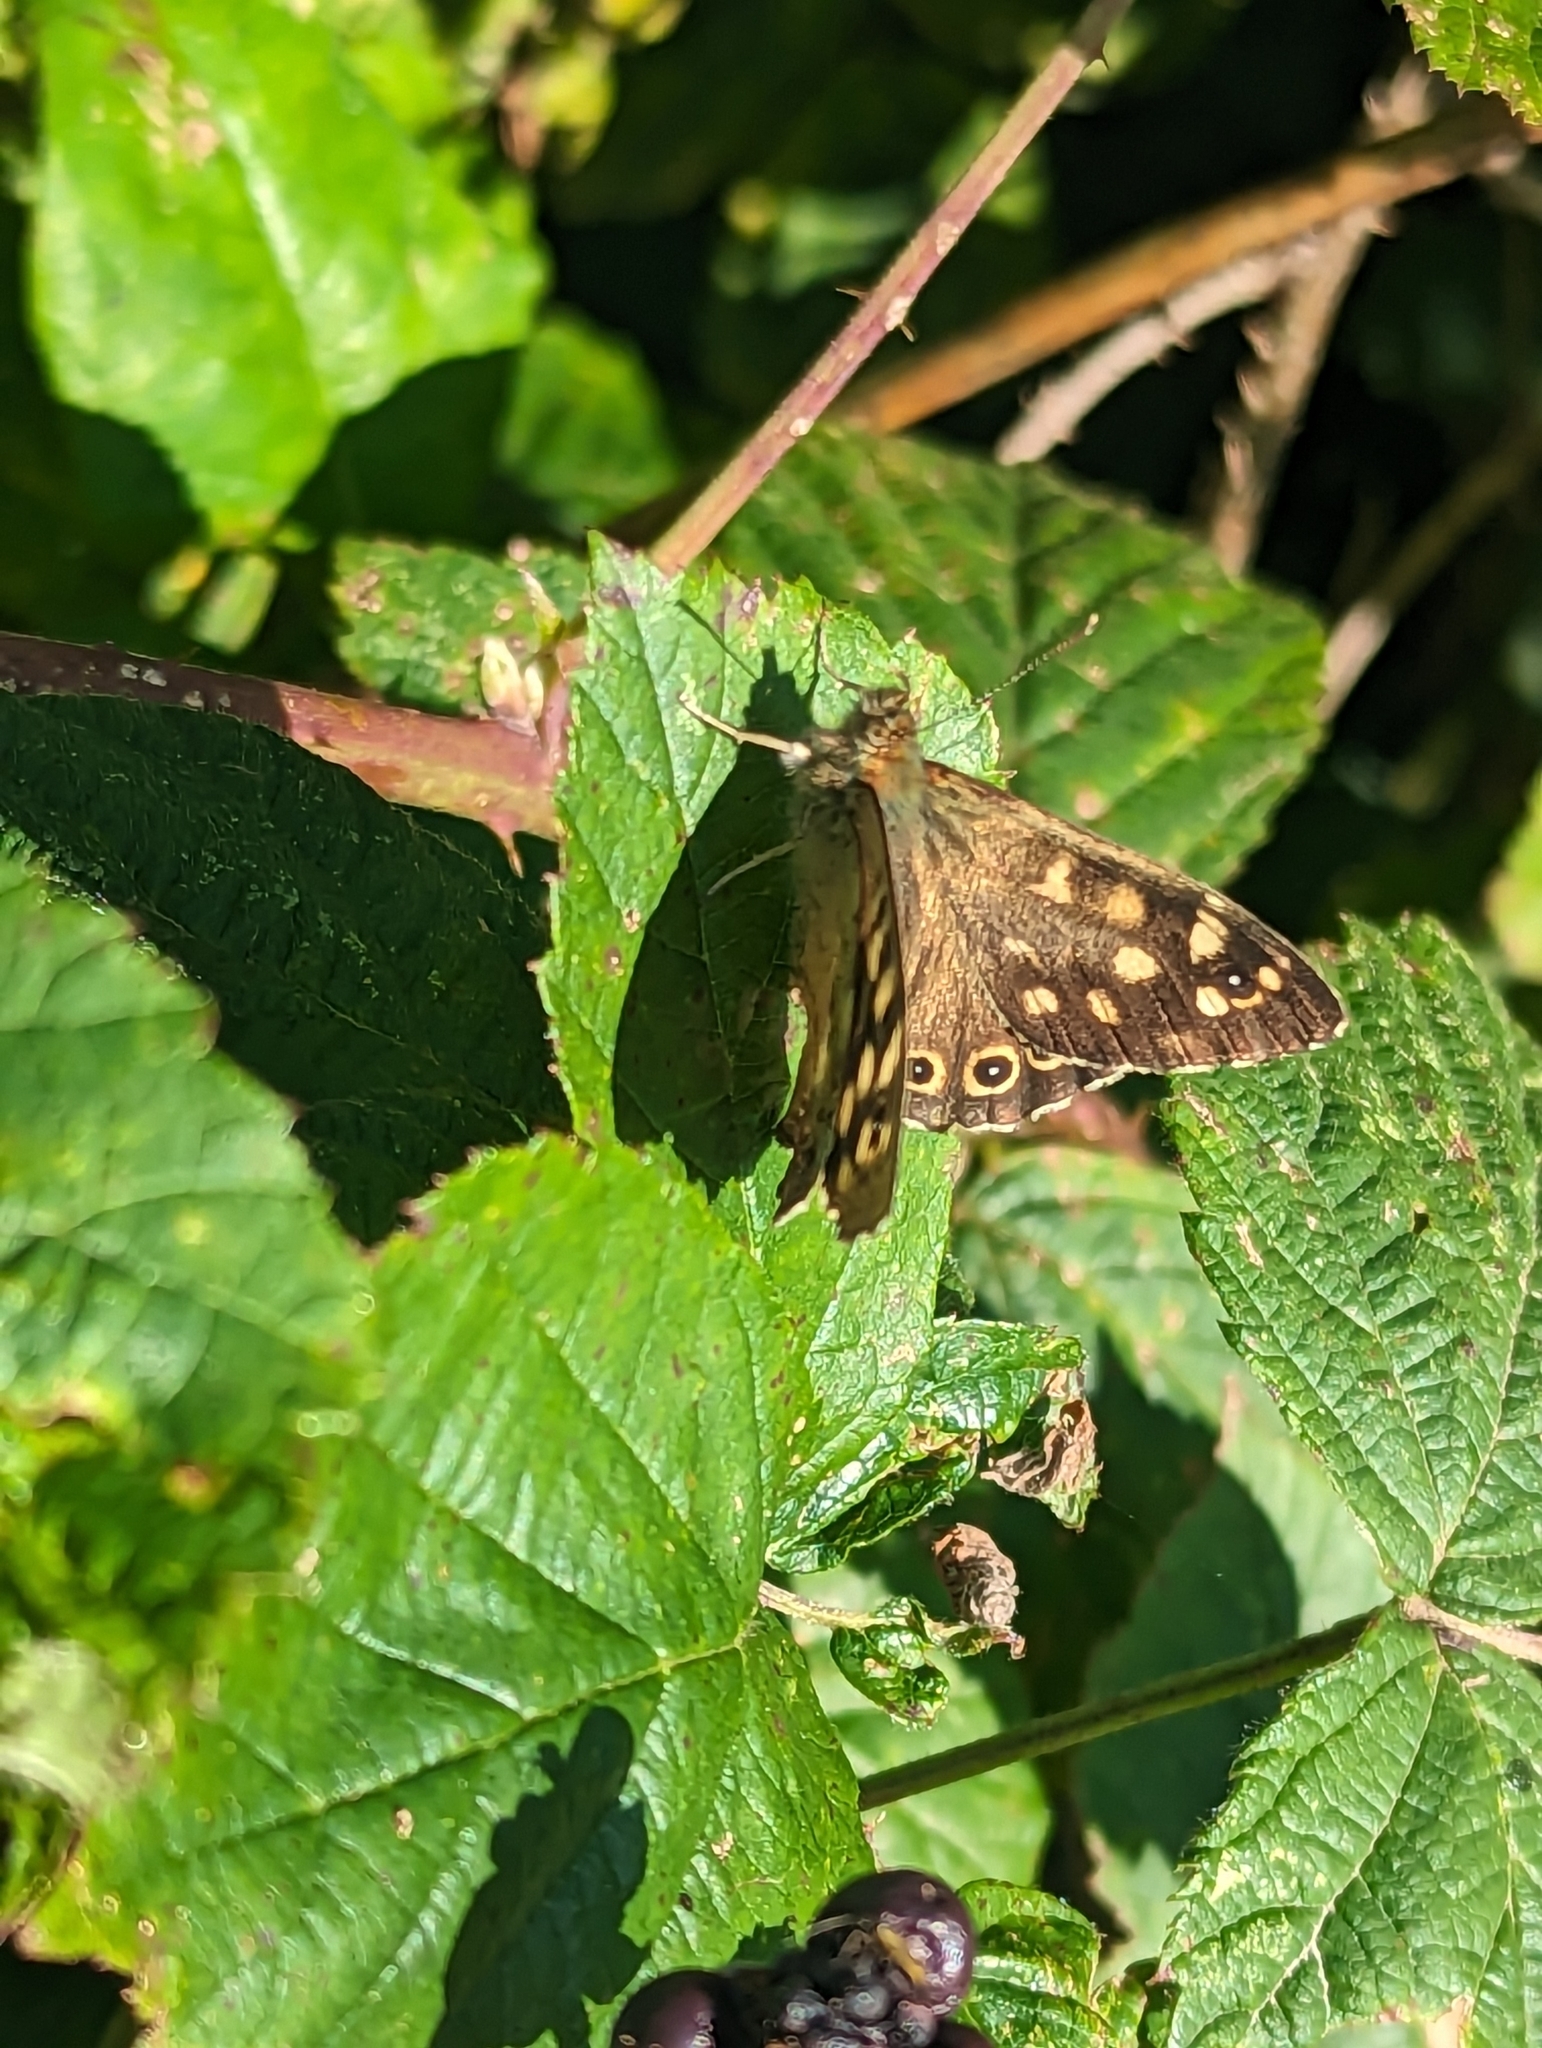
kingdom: Animalia
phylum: Arthropoda
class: Insecta
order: Lepidoptera
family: Nymphalidae
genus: Pararge
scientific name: Pararge aegeria
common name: Speckled wood
